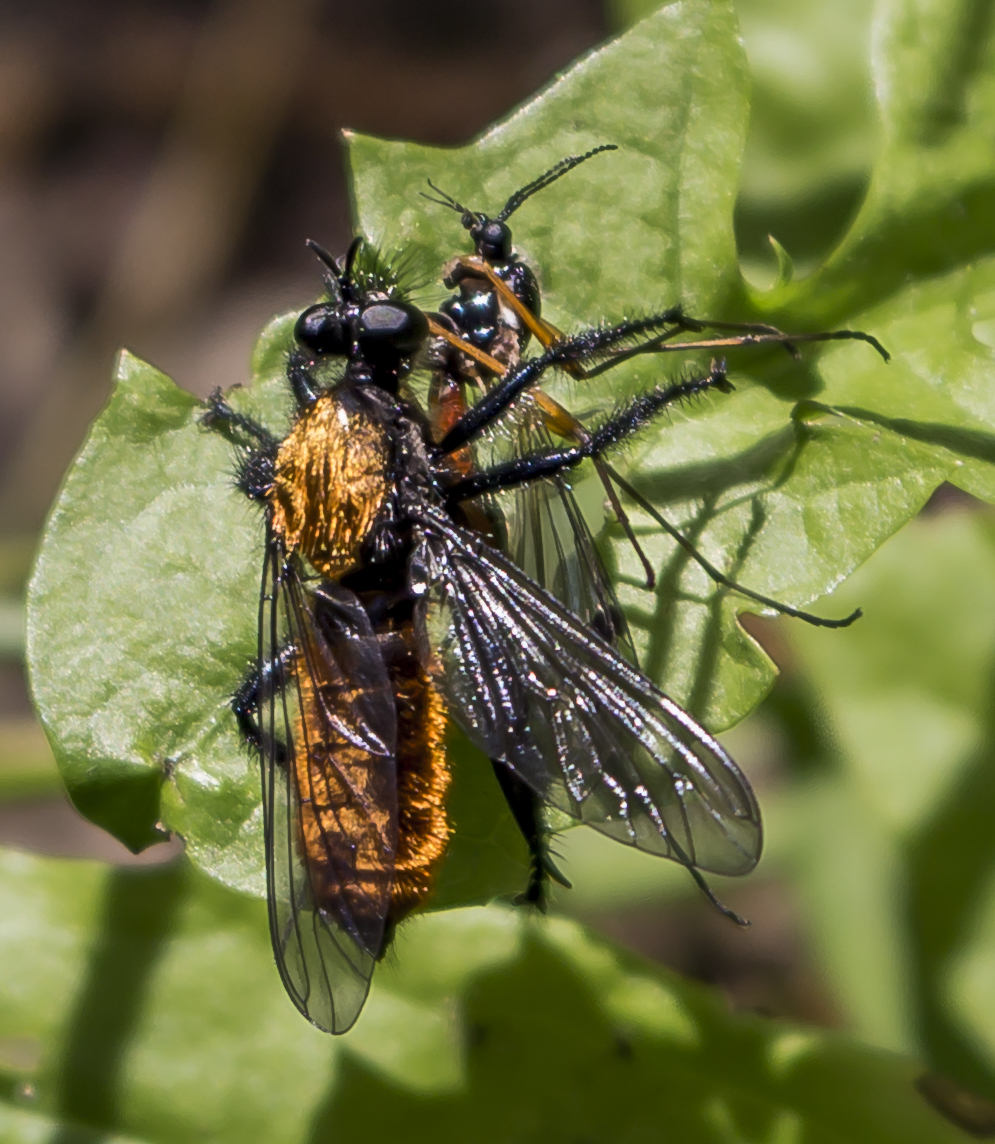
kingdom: Animalia
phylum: Arthropoda
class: Insecta
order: Diptera
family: Asilidae
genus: Laphria
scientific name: Laphria
